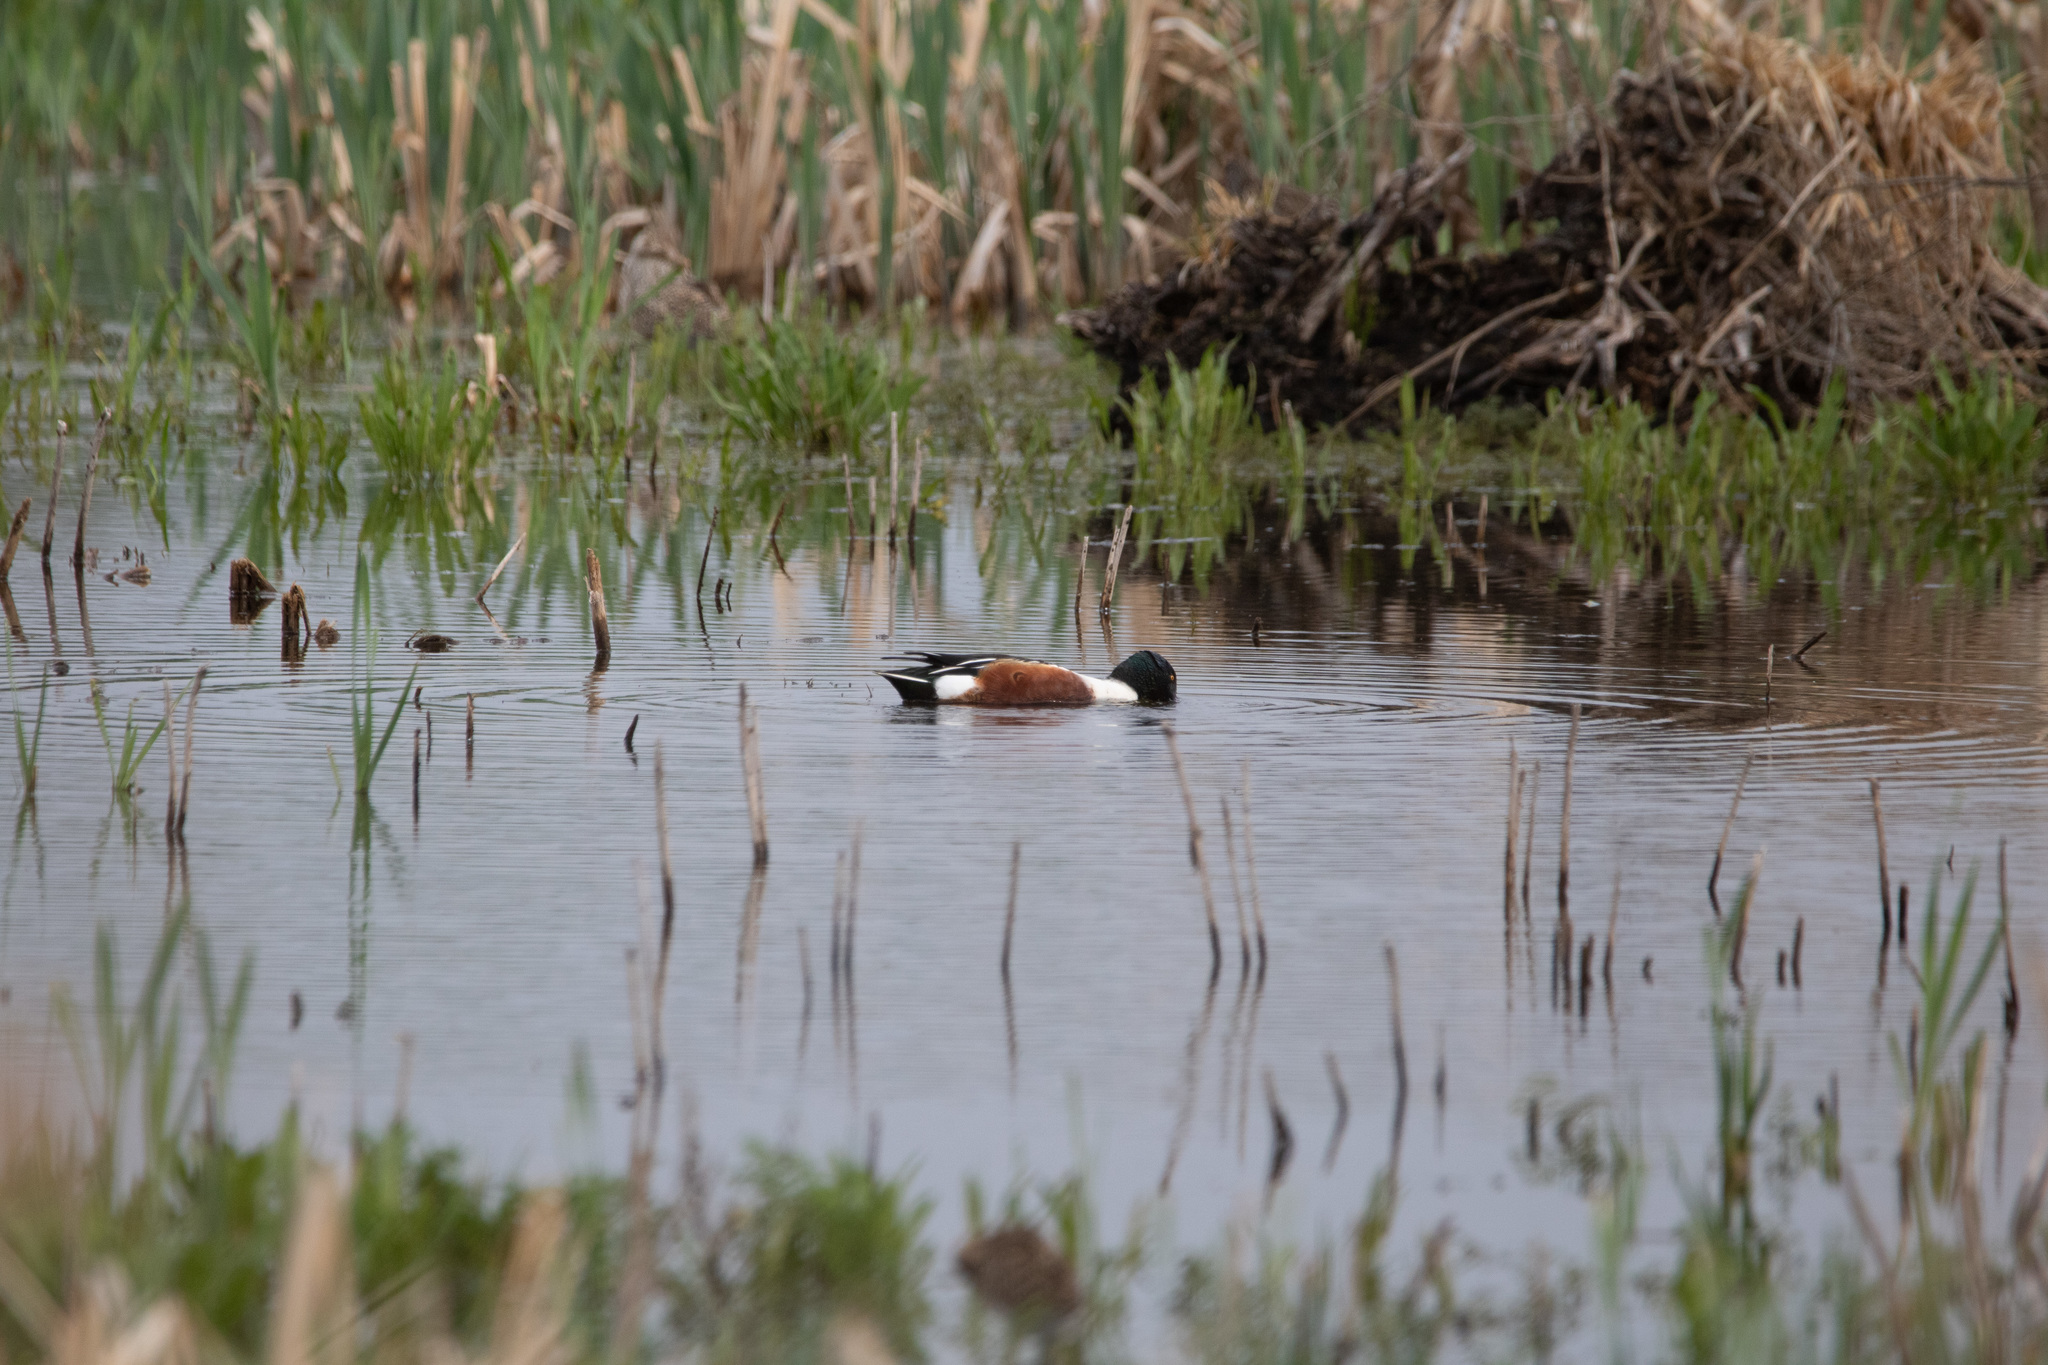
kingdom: Animalia
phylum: Chordata
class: Aves
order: Anseriformes
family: Anatidae
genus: Spatula
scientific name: Spatula clypeata
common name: Northern shoveler
